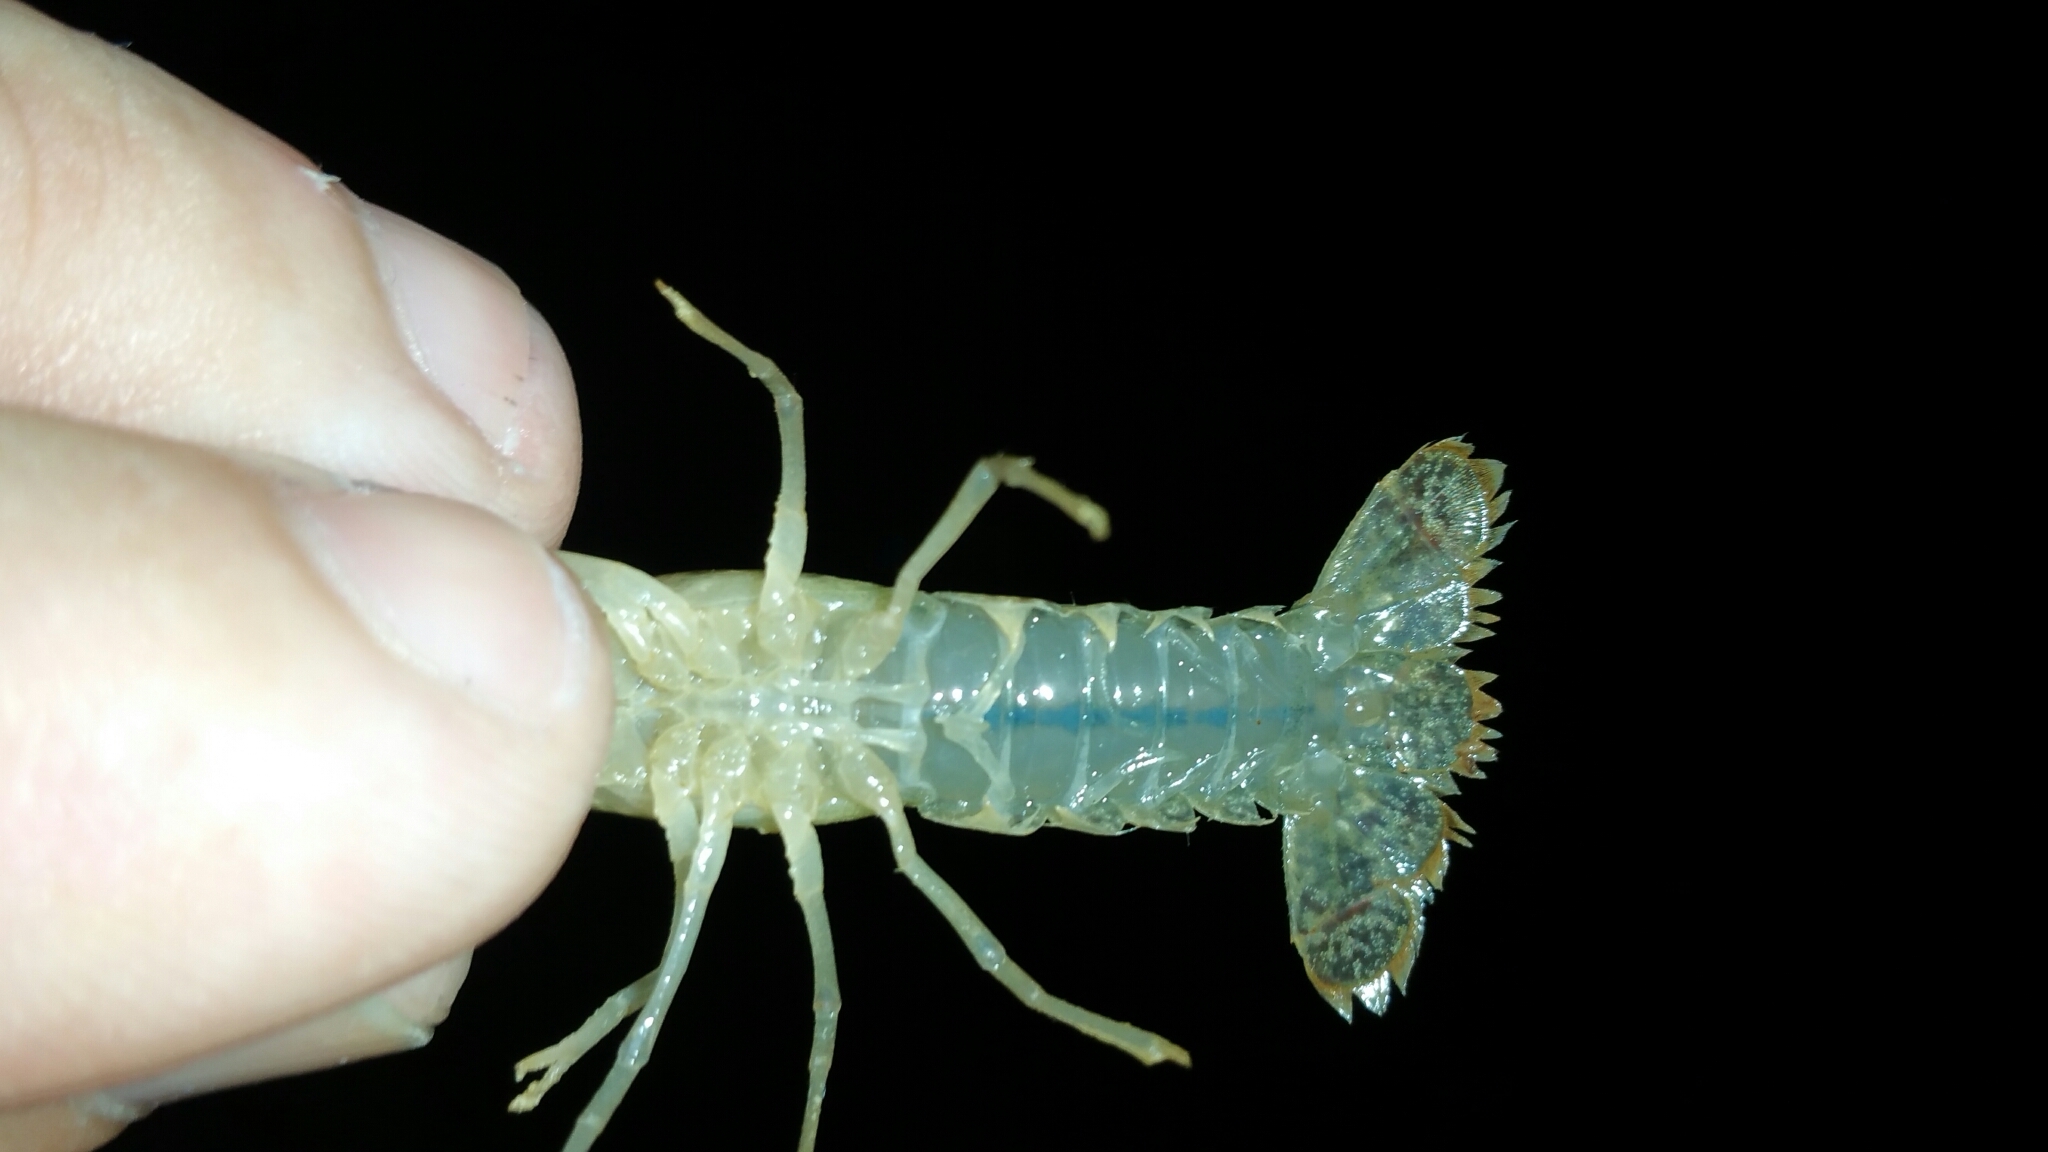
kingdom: Animalia
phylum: Arthropoda
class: Malacostraca
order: Decapoda
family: Cambaridae
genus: Procambarus
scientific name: Procambarus clarkii
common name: Red swamp crayfish
